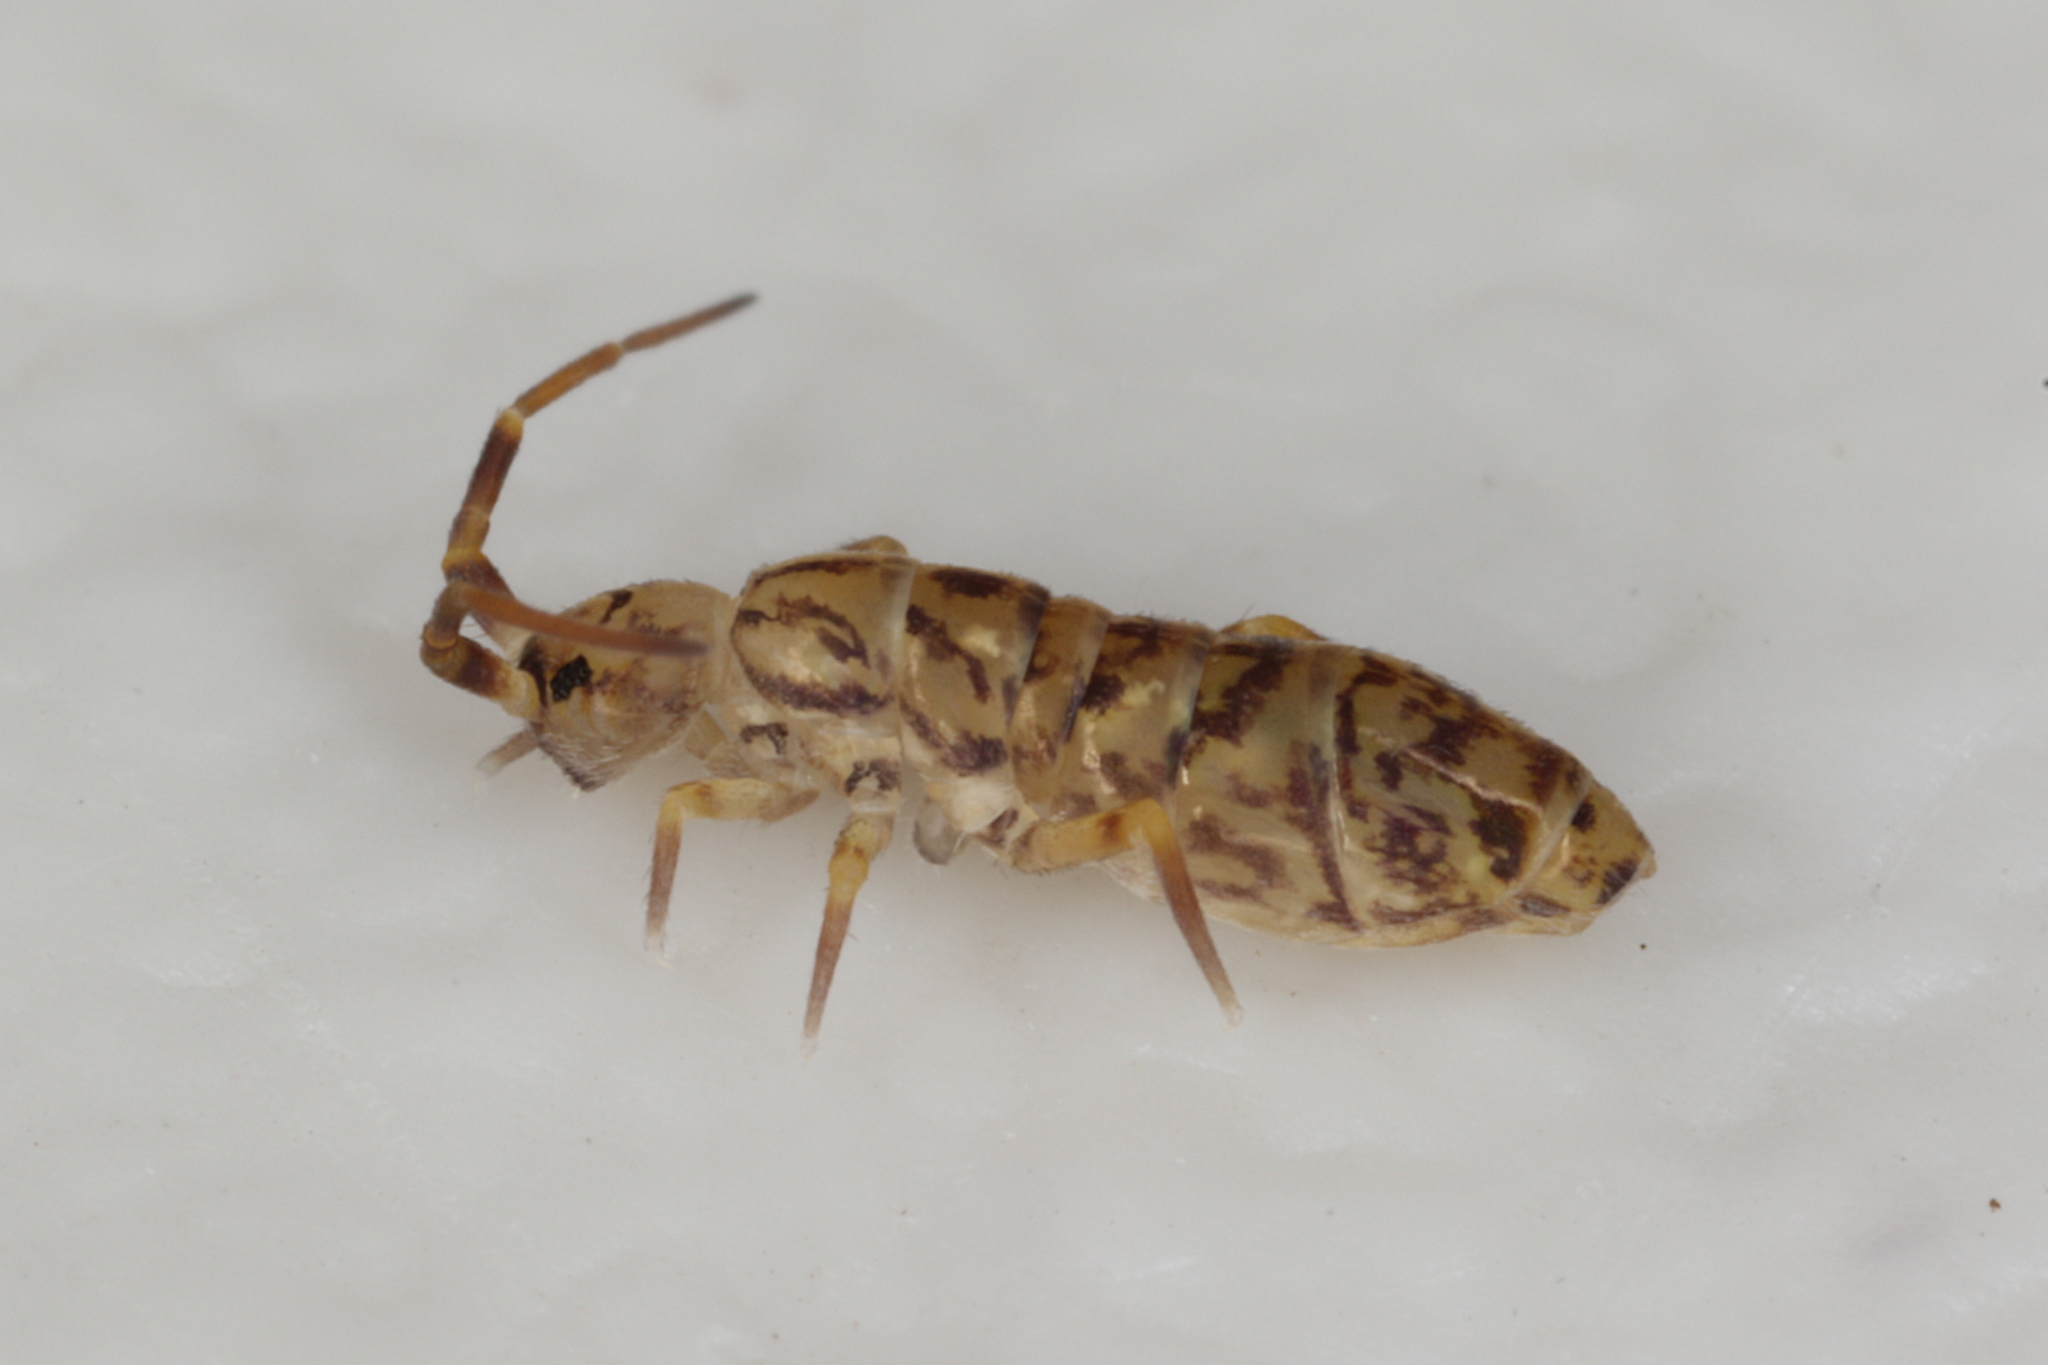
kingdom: Animalia
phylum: Arthropoda
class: Collembola
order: Entomobryomorpha
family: Orchesellidae
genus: Orchesella
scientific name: Orchesella villosa
